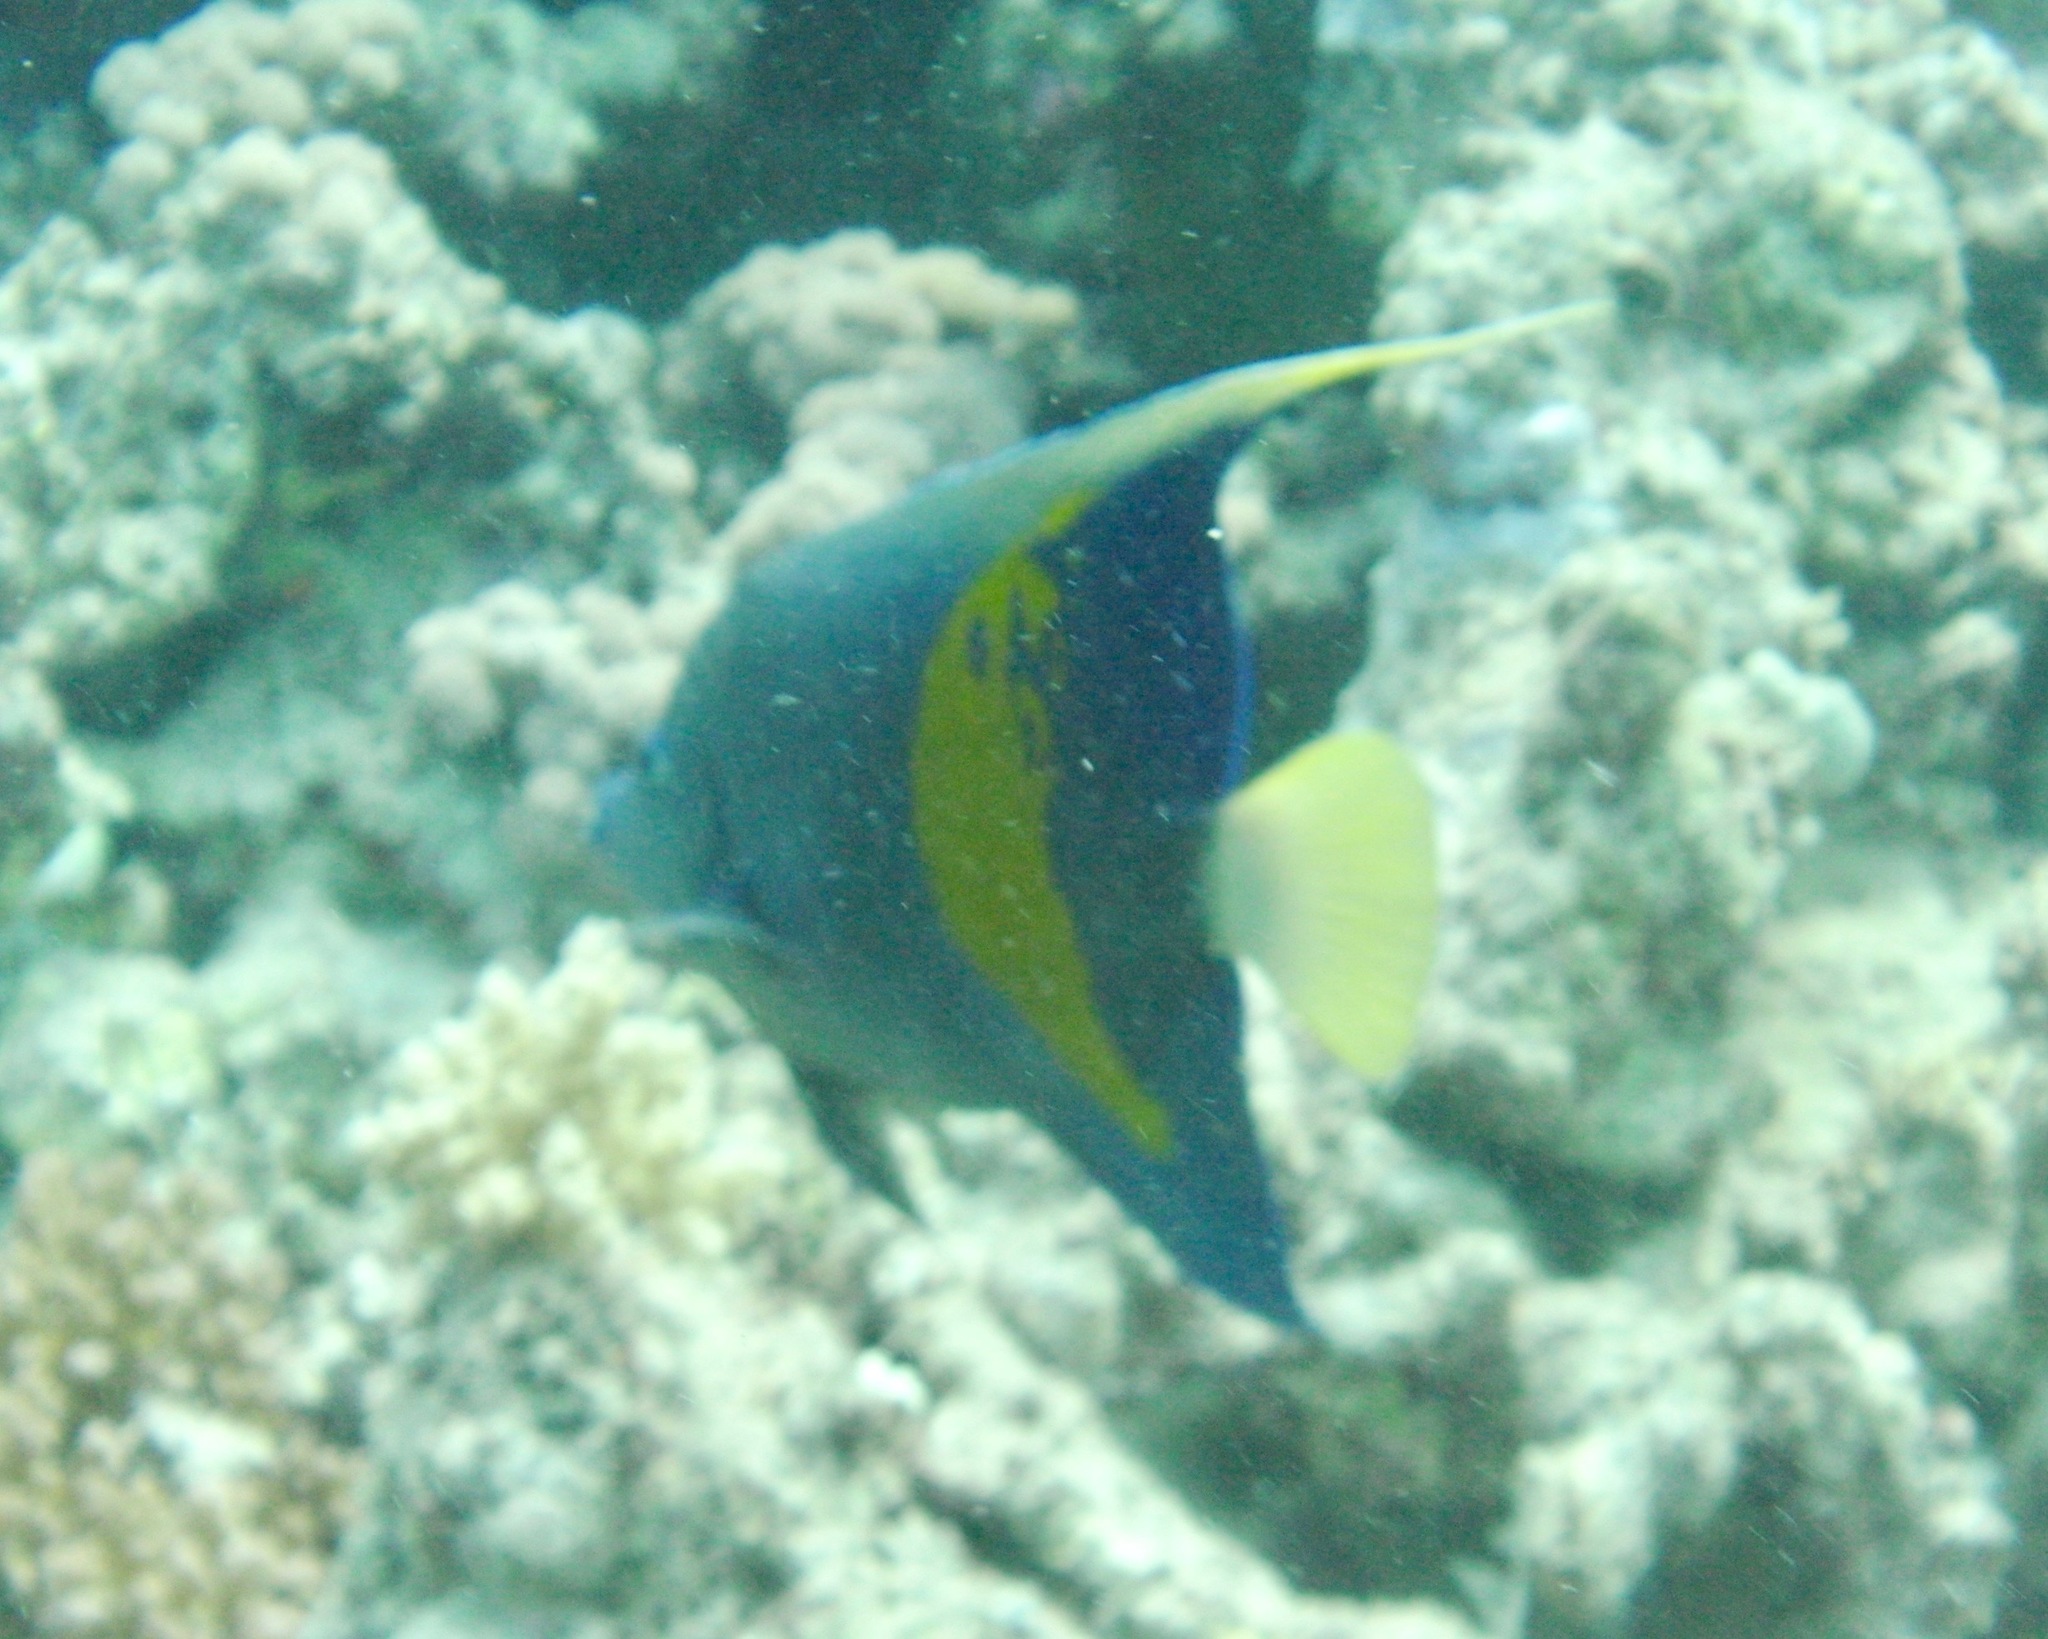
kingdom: Animalia
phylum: Chordata
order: Perciformes
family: Pomacanthidae
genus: Pomacanthus
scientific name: Pomacanthus maculosus
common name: Yellowbar angelfish
